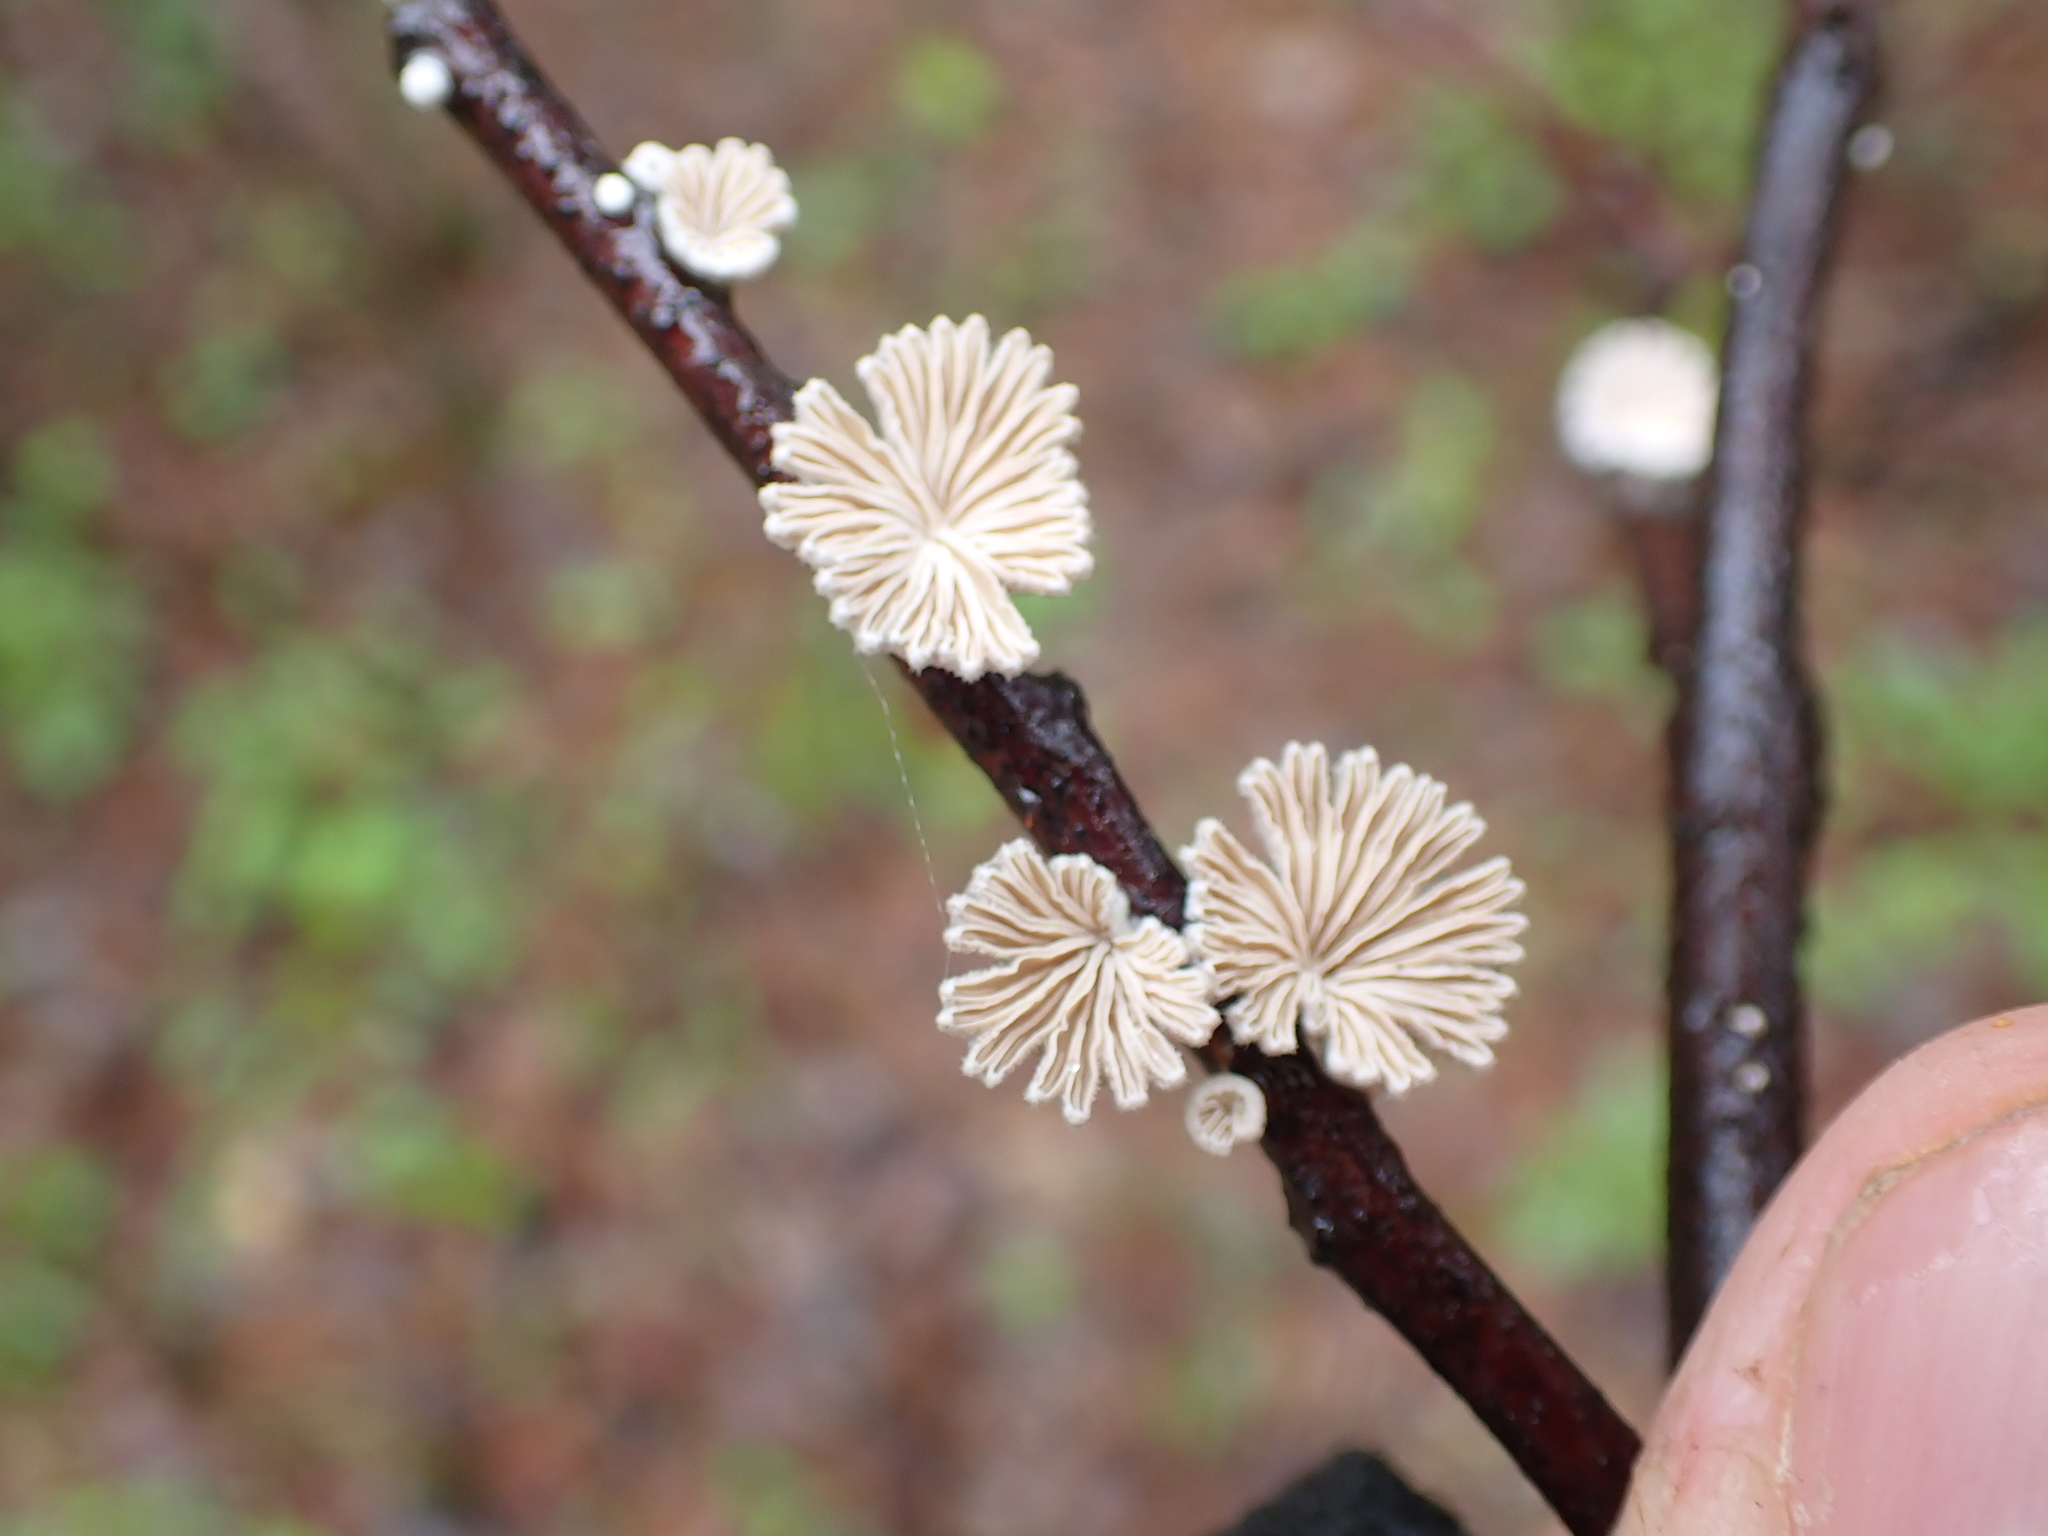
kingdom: Fungi
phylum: Basidiomycota
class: Agaricomycetes
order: Agaricales
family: Schizophyllaceae
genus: Schizophyllum
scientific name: Schizophyllum commune
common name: Common porecrust
